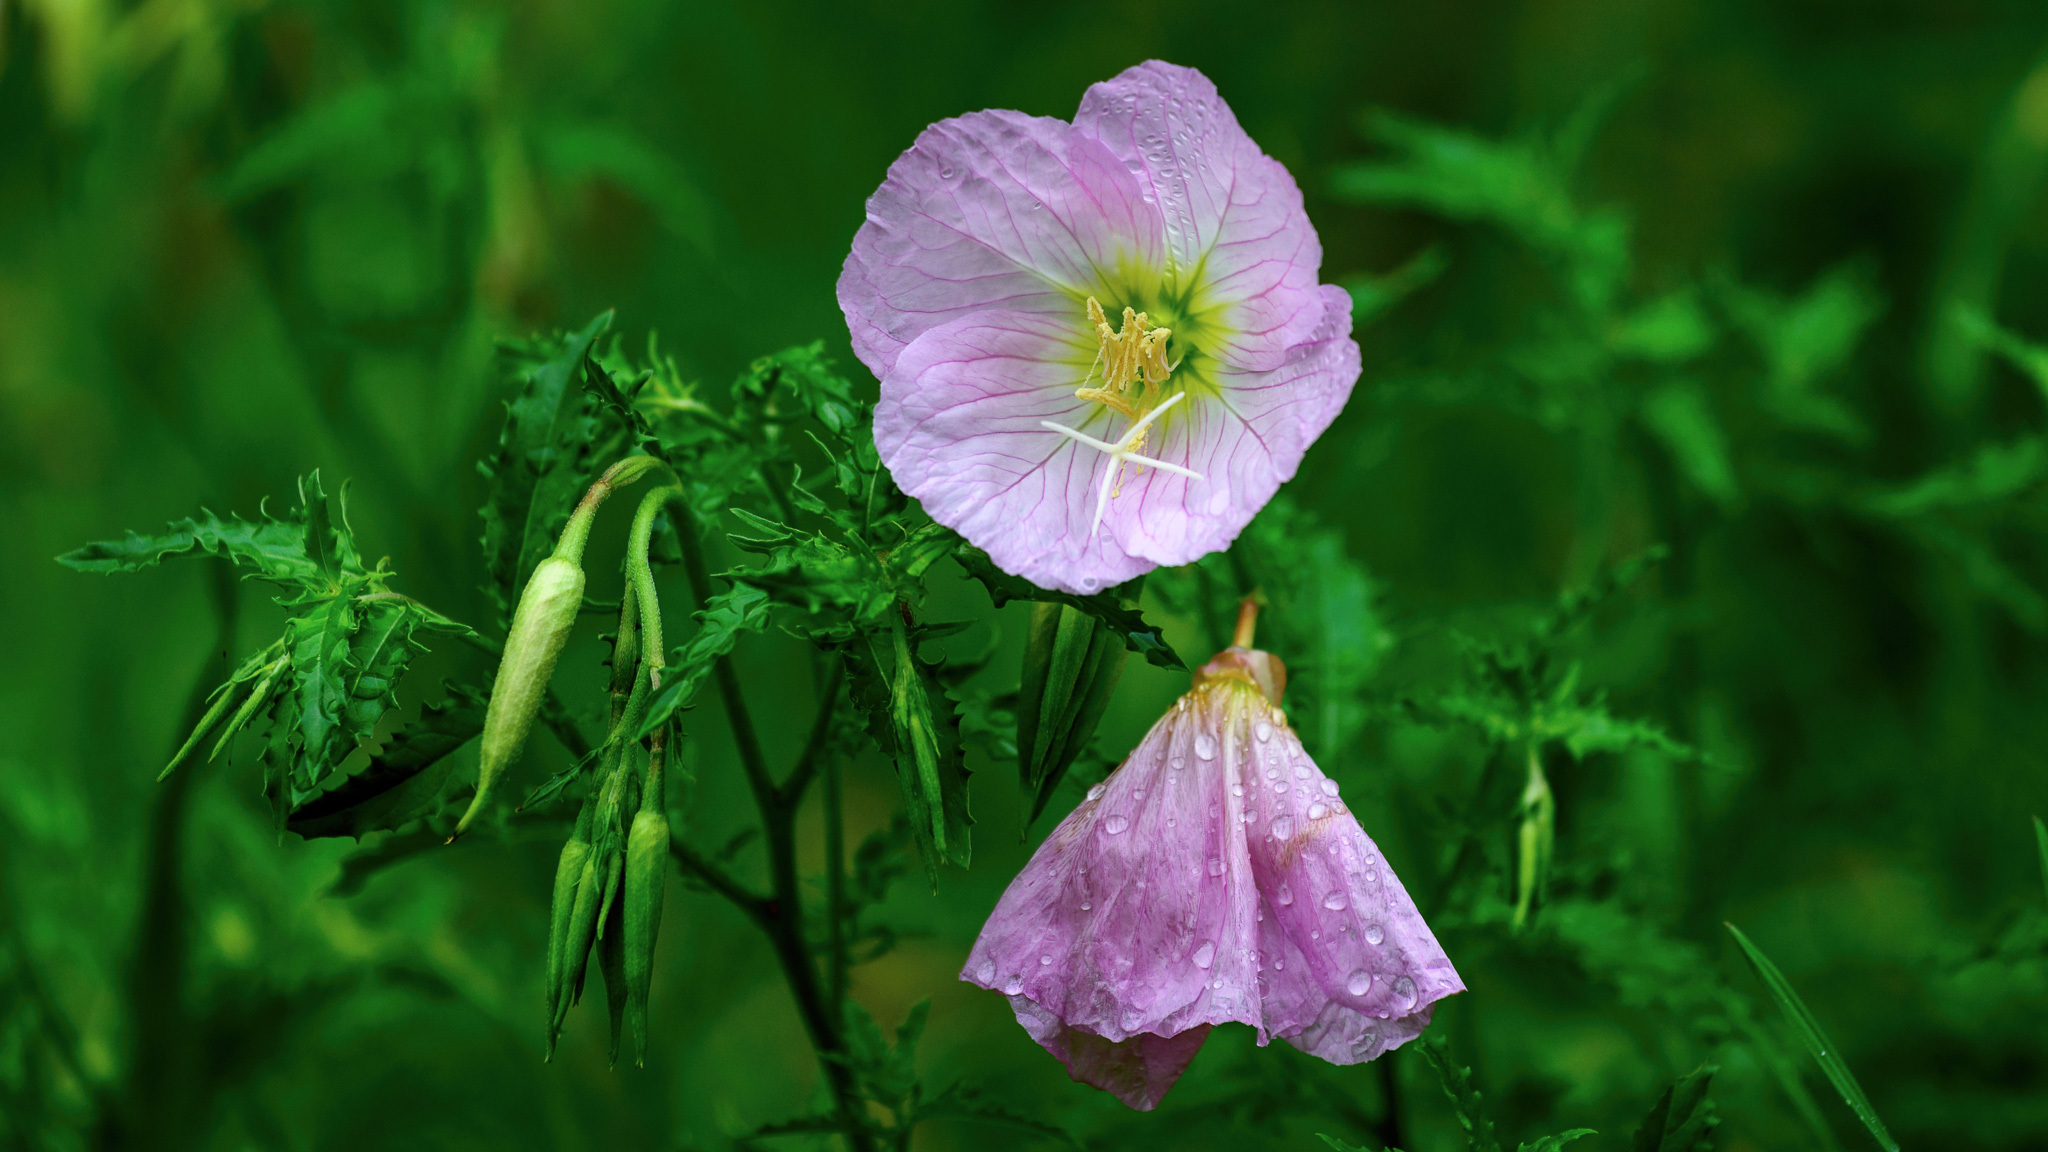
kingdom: Plantae
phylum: Tracheophyta
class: Magnoliopsida
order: Myrtales
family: Onagraceae
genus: Oenothera
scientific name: Oenothera speciosa
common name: White evening-primrose
